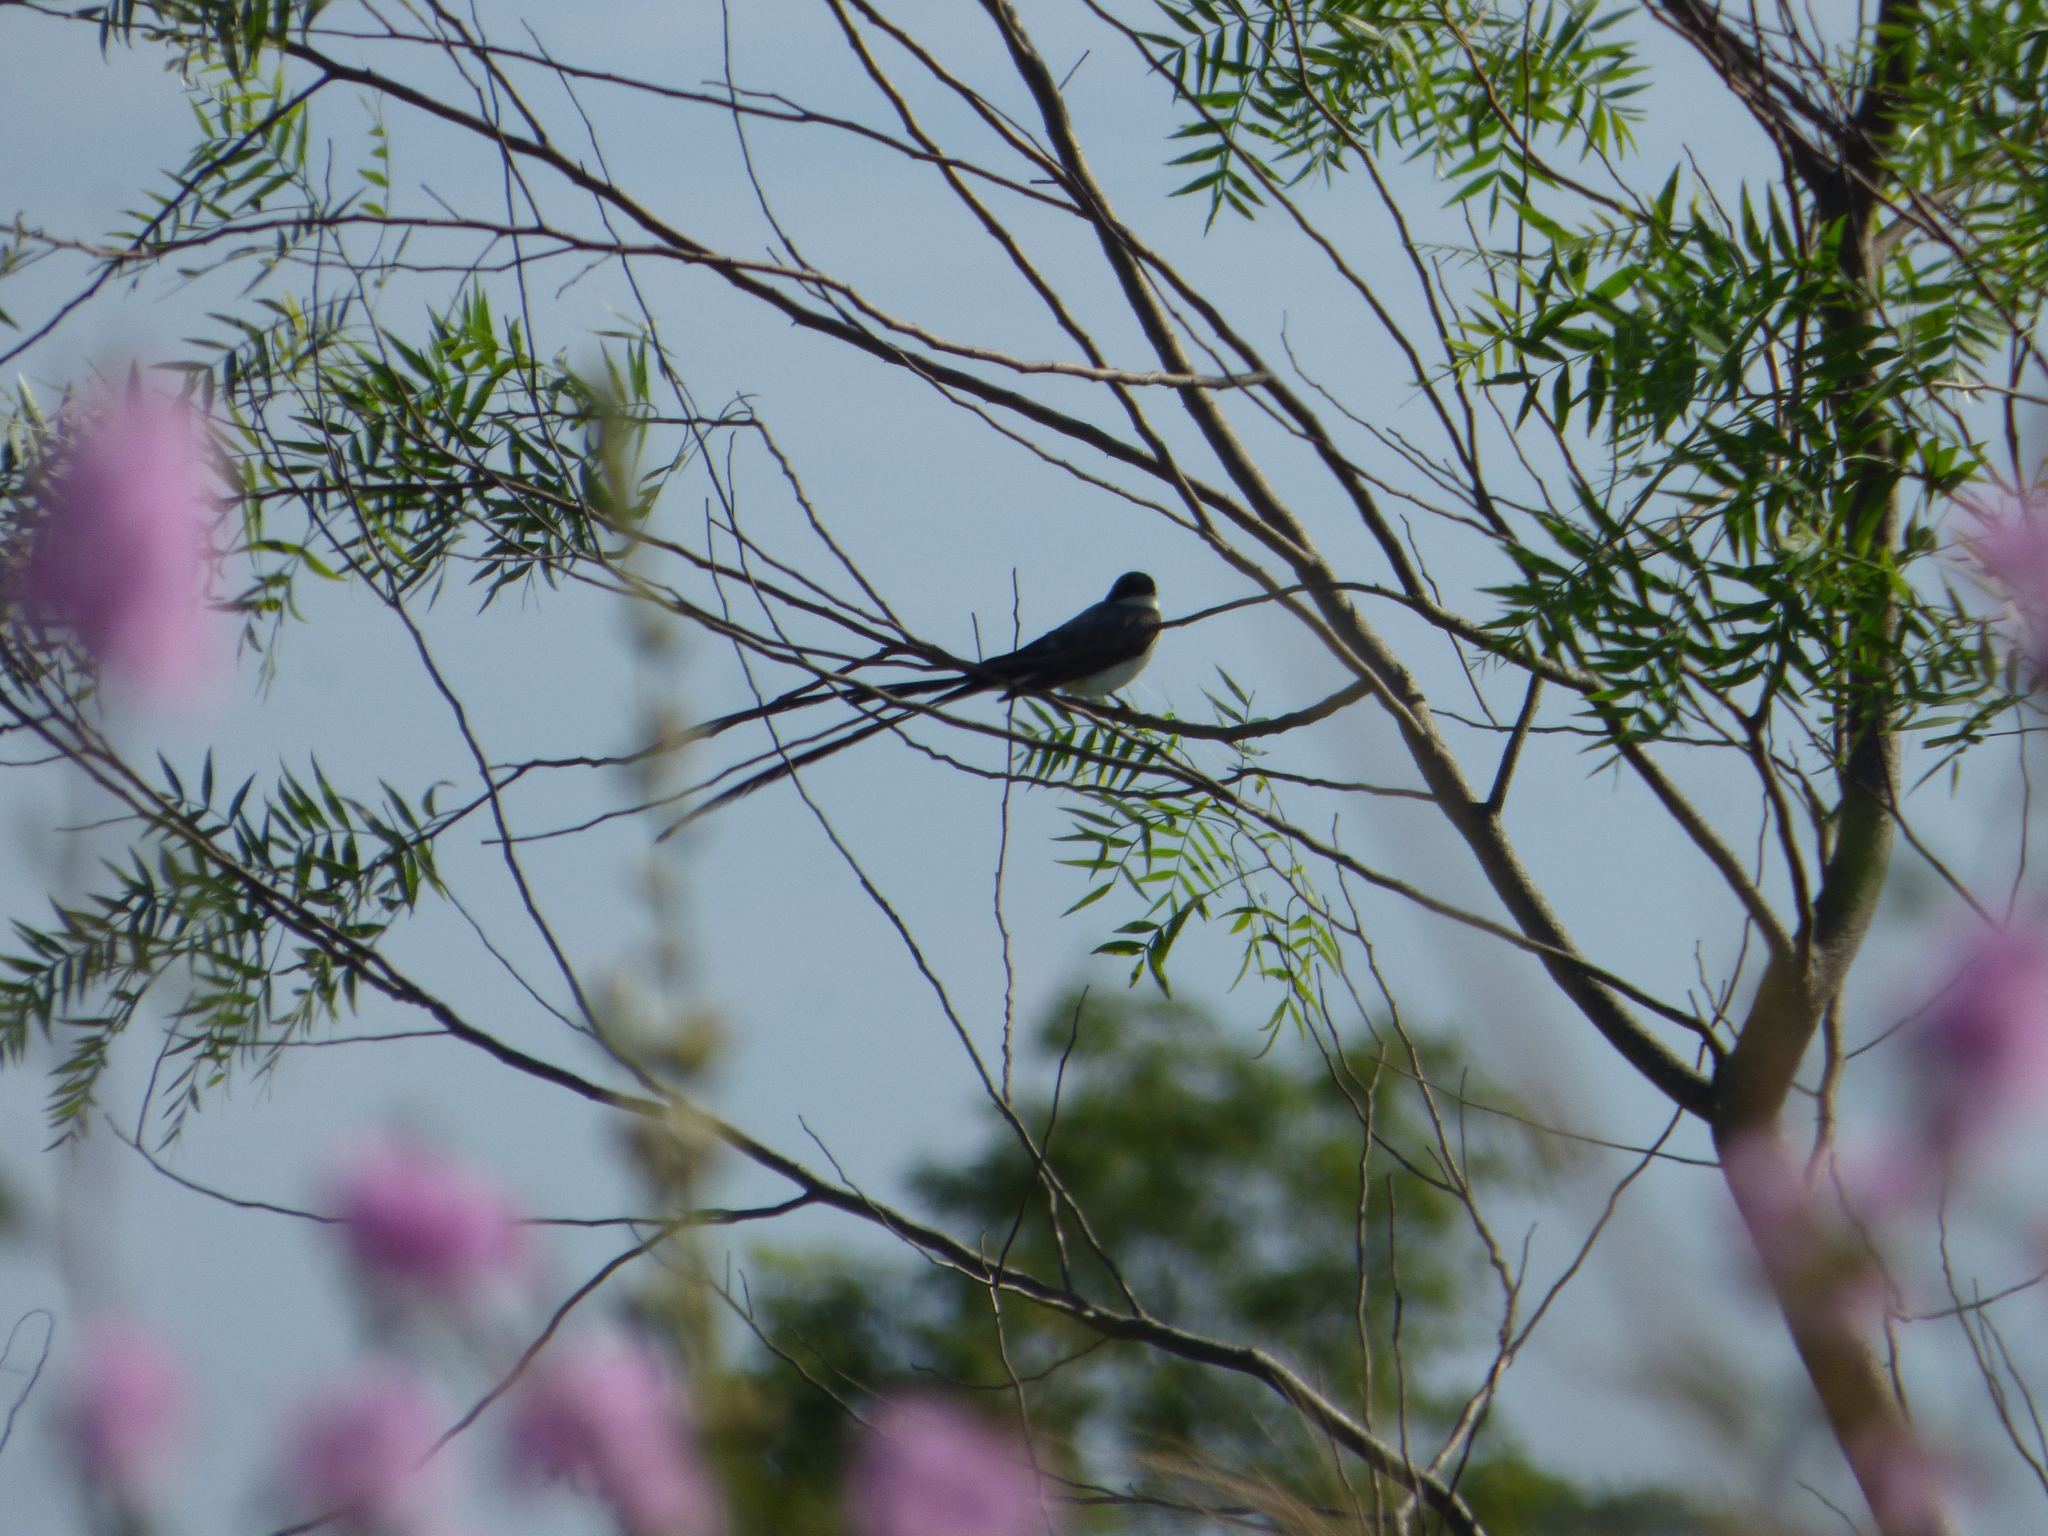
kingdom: Animalia
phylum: Chordata
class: Aves
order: Passeriformes
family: Tyrannidae
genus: Tyrannus
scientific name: Tyrannus savana
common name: Fork-tailed flycatcher
